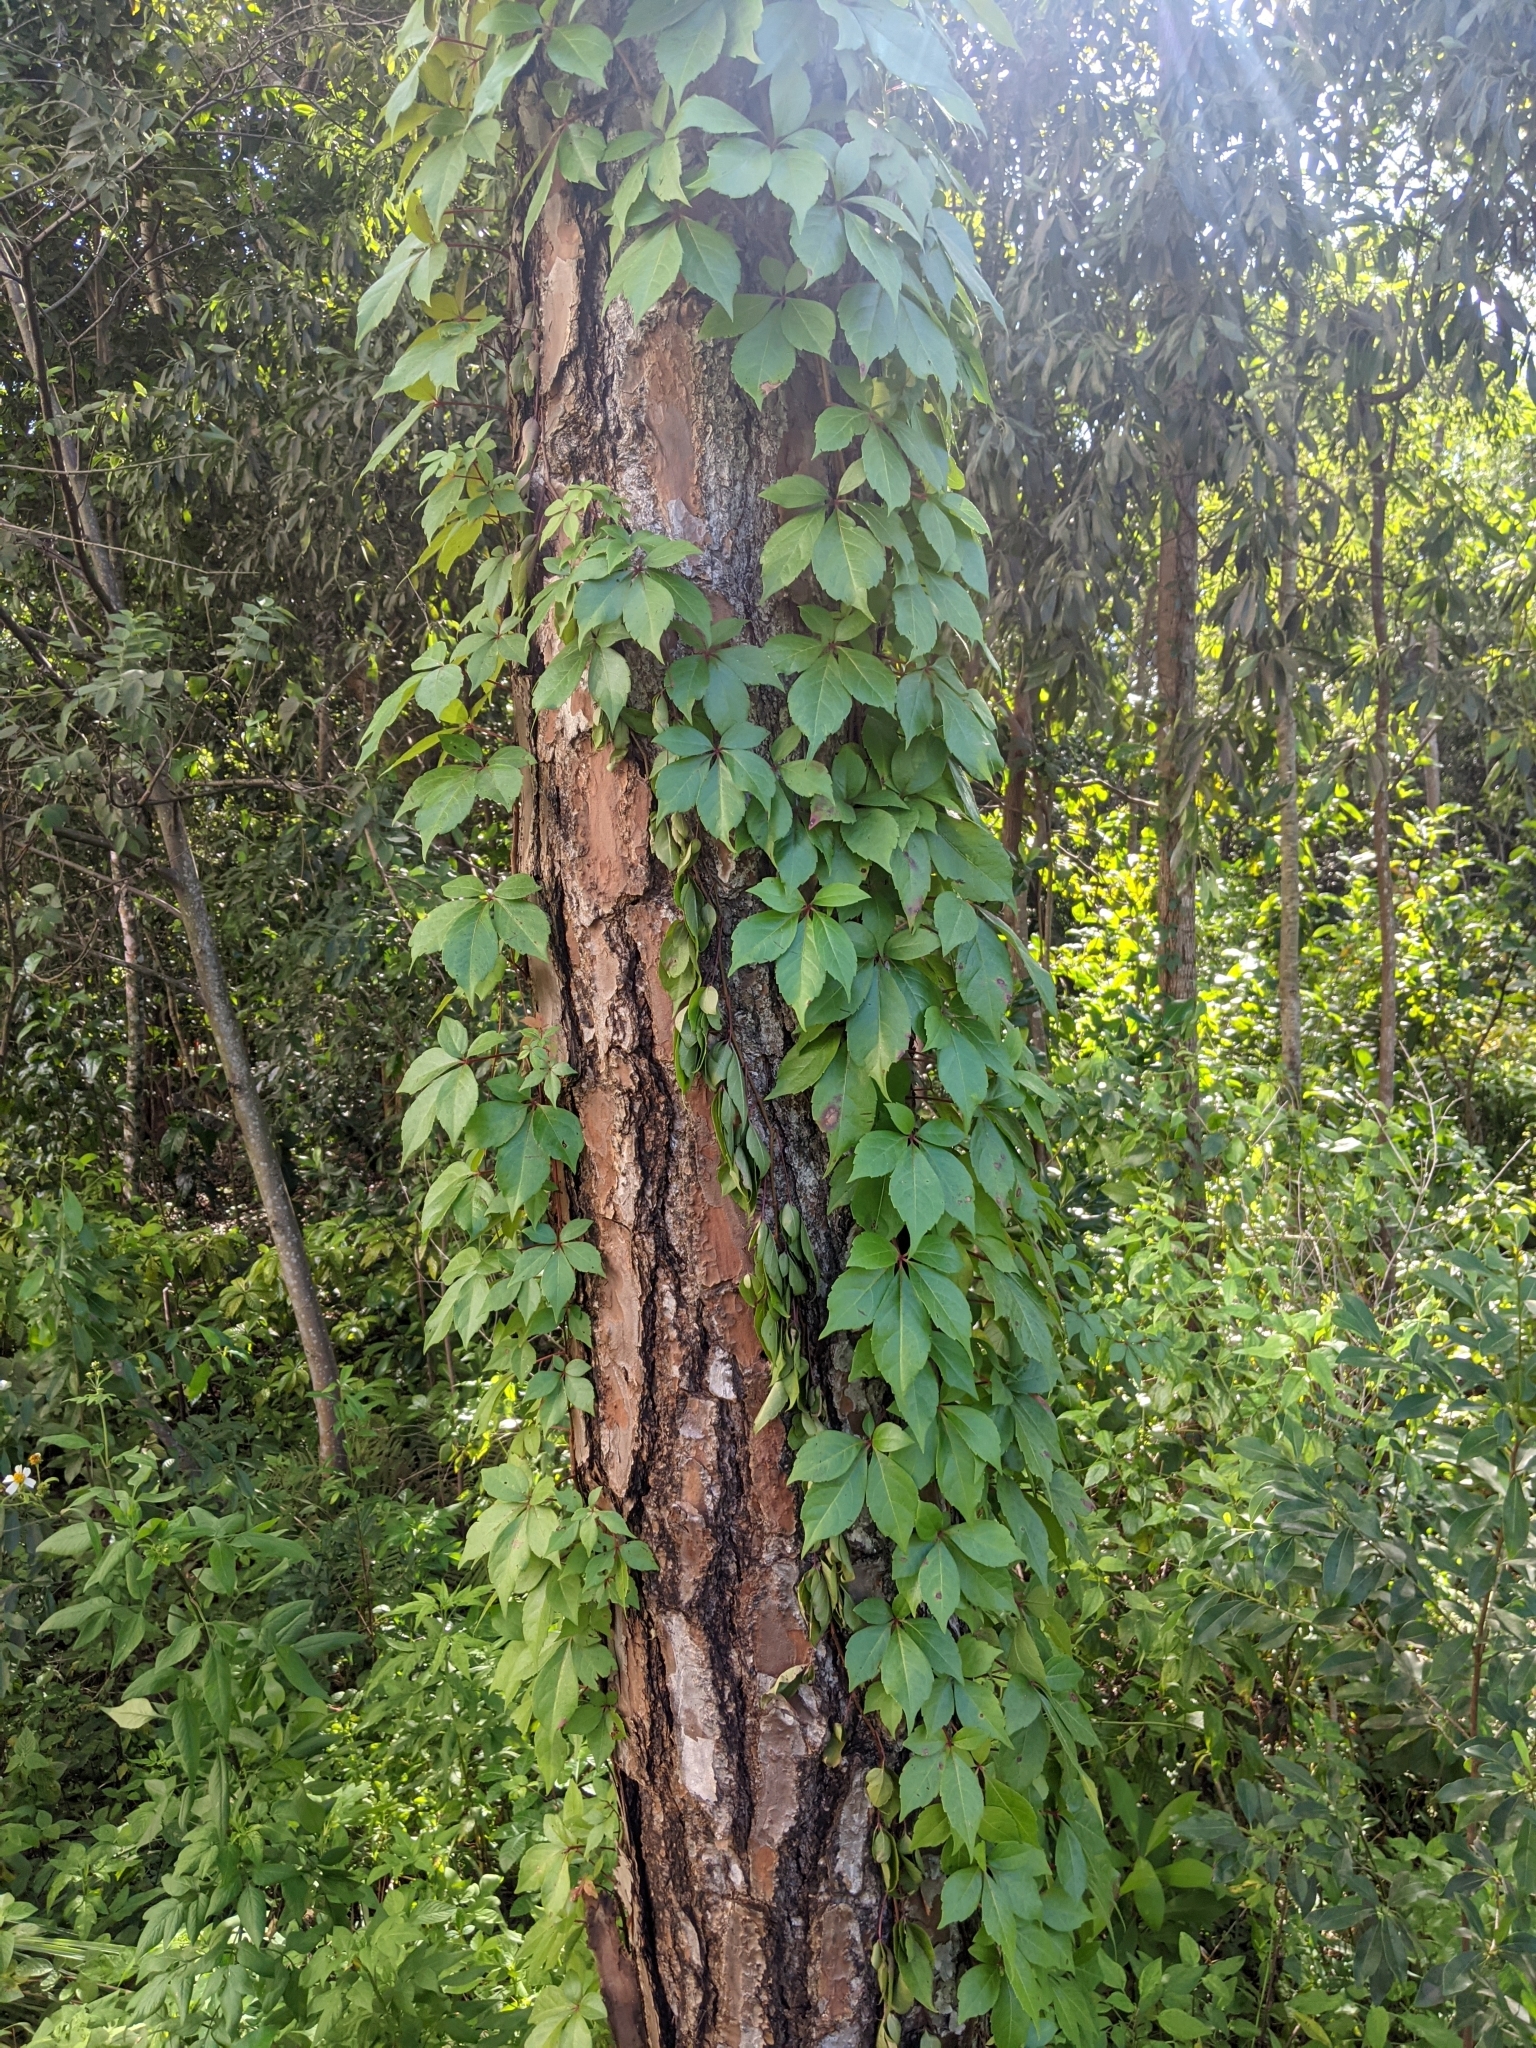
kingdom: Plantae
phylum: Tracheophyta
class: Magnoliopsida
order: Vitales
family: Vitaceae
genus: Parthenocissus
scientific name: Parthenocissus quinquefolia
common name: Virginia-creeper
